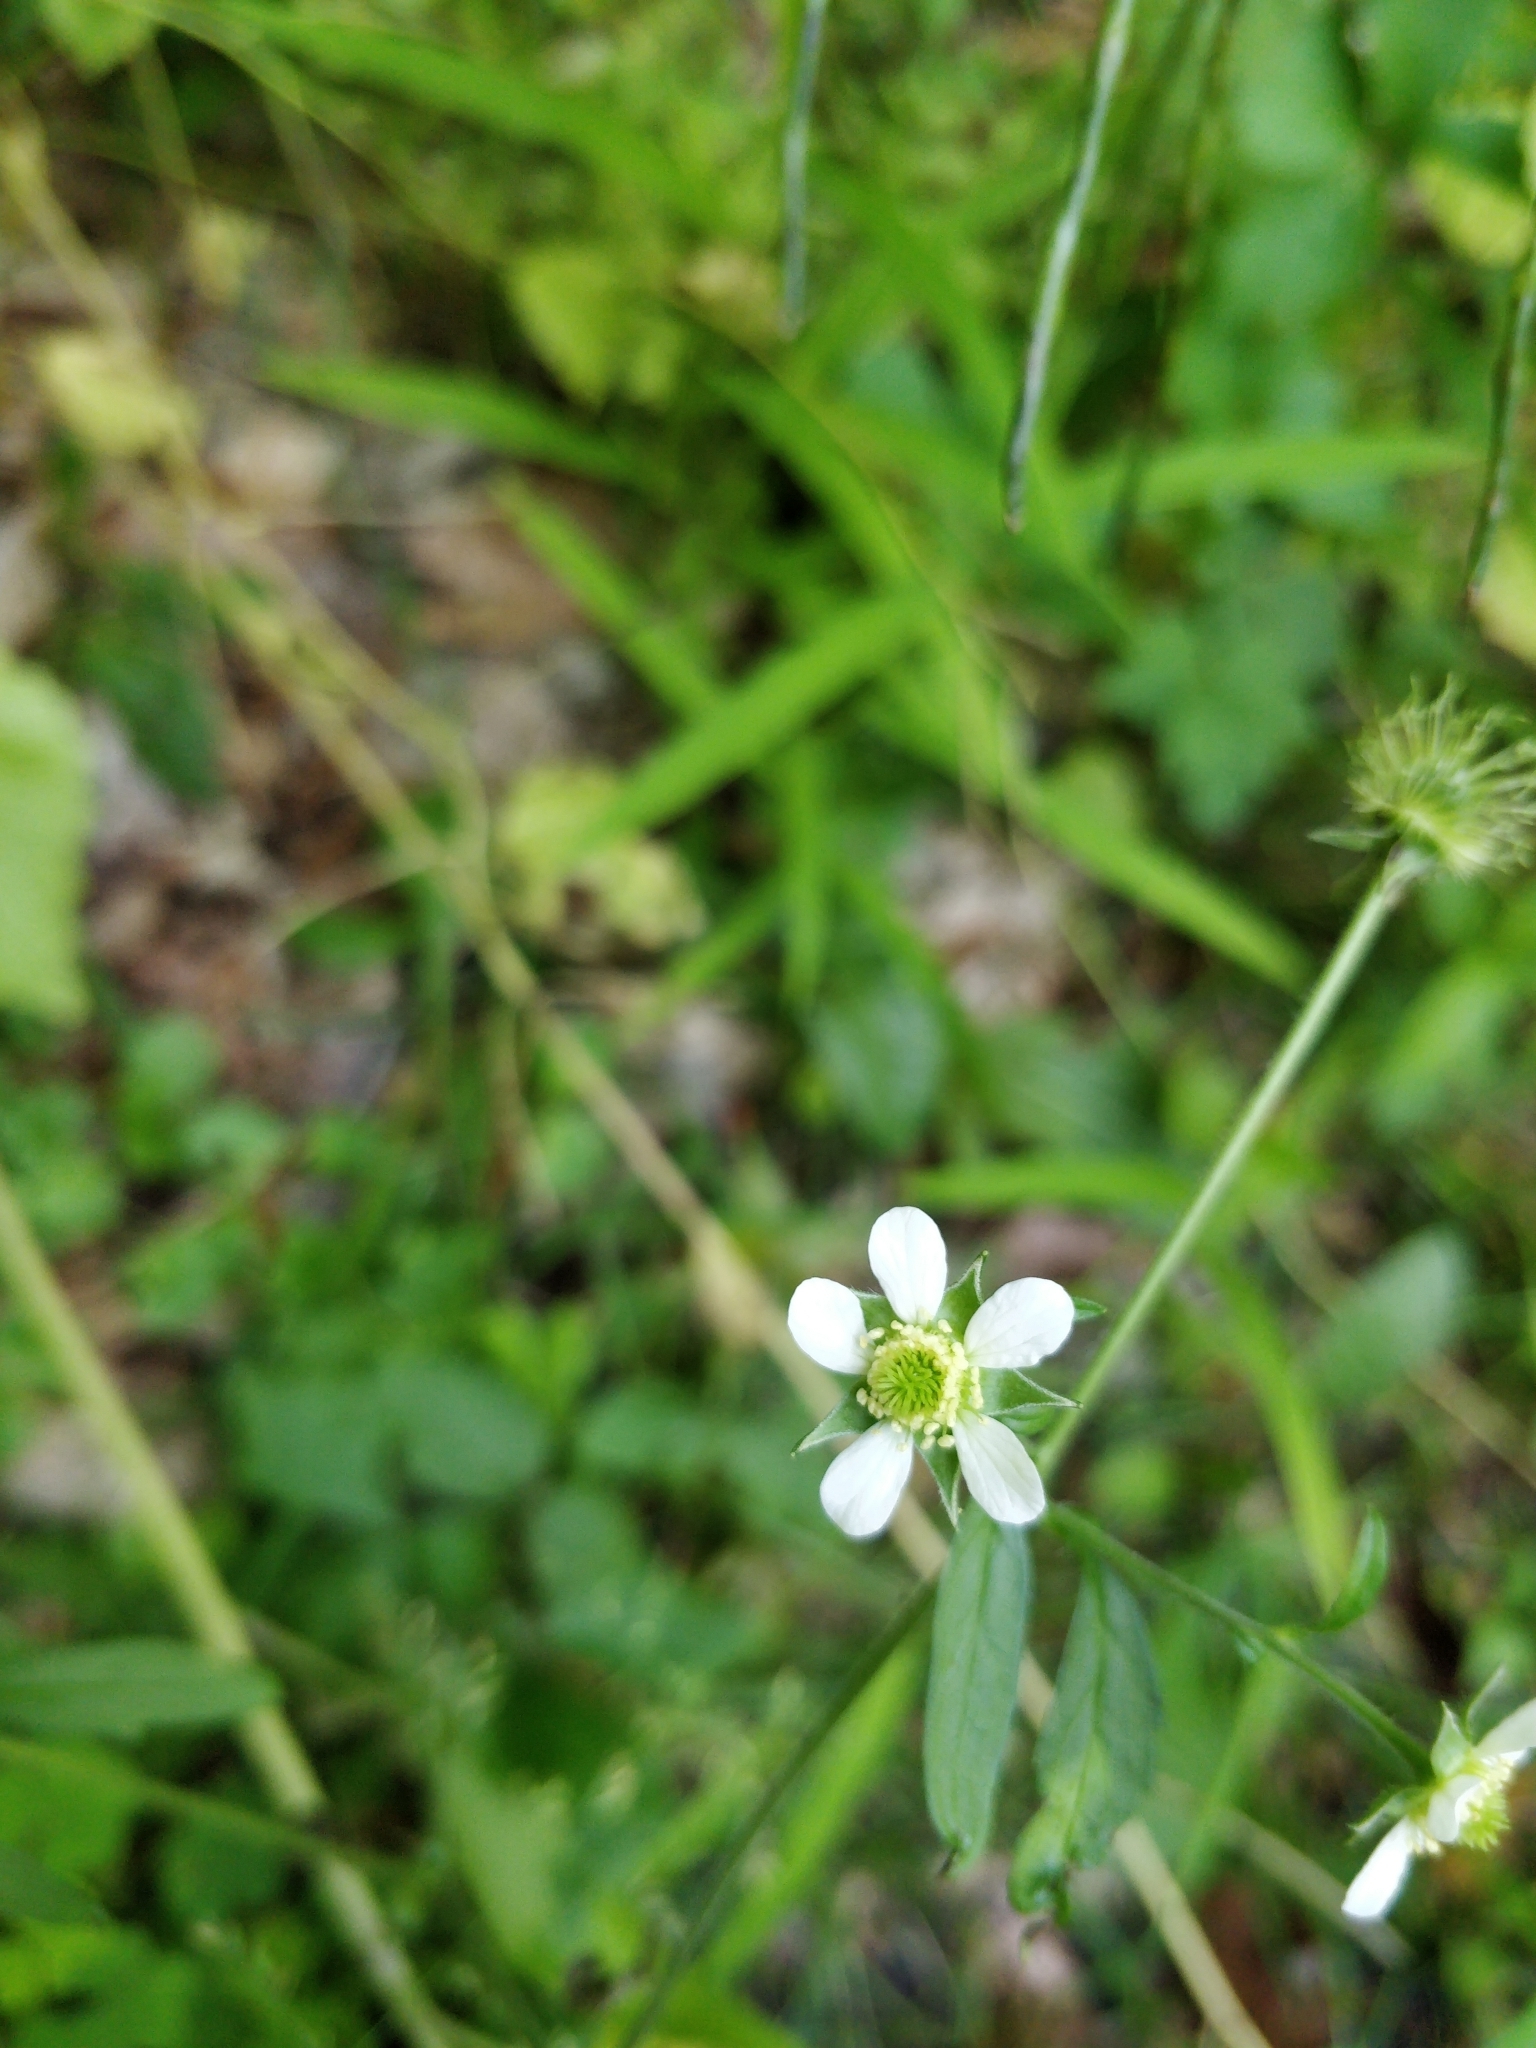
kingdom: Plantae
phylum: Tracheophyta
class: Magnoliopsida
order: Rosales
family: Rosaceae
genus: Geum
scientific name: Geum canadense
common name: White avens
